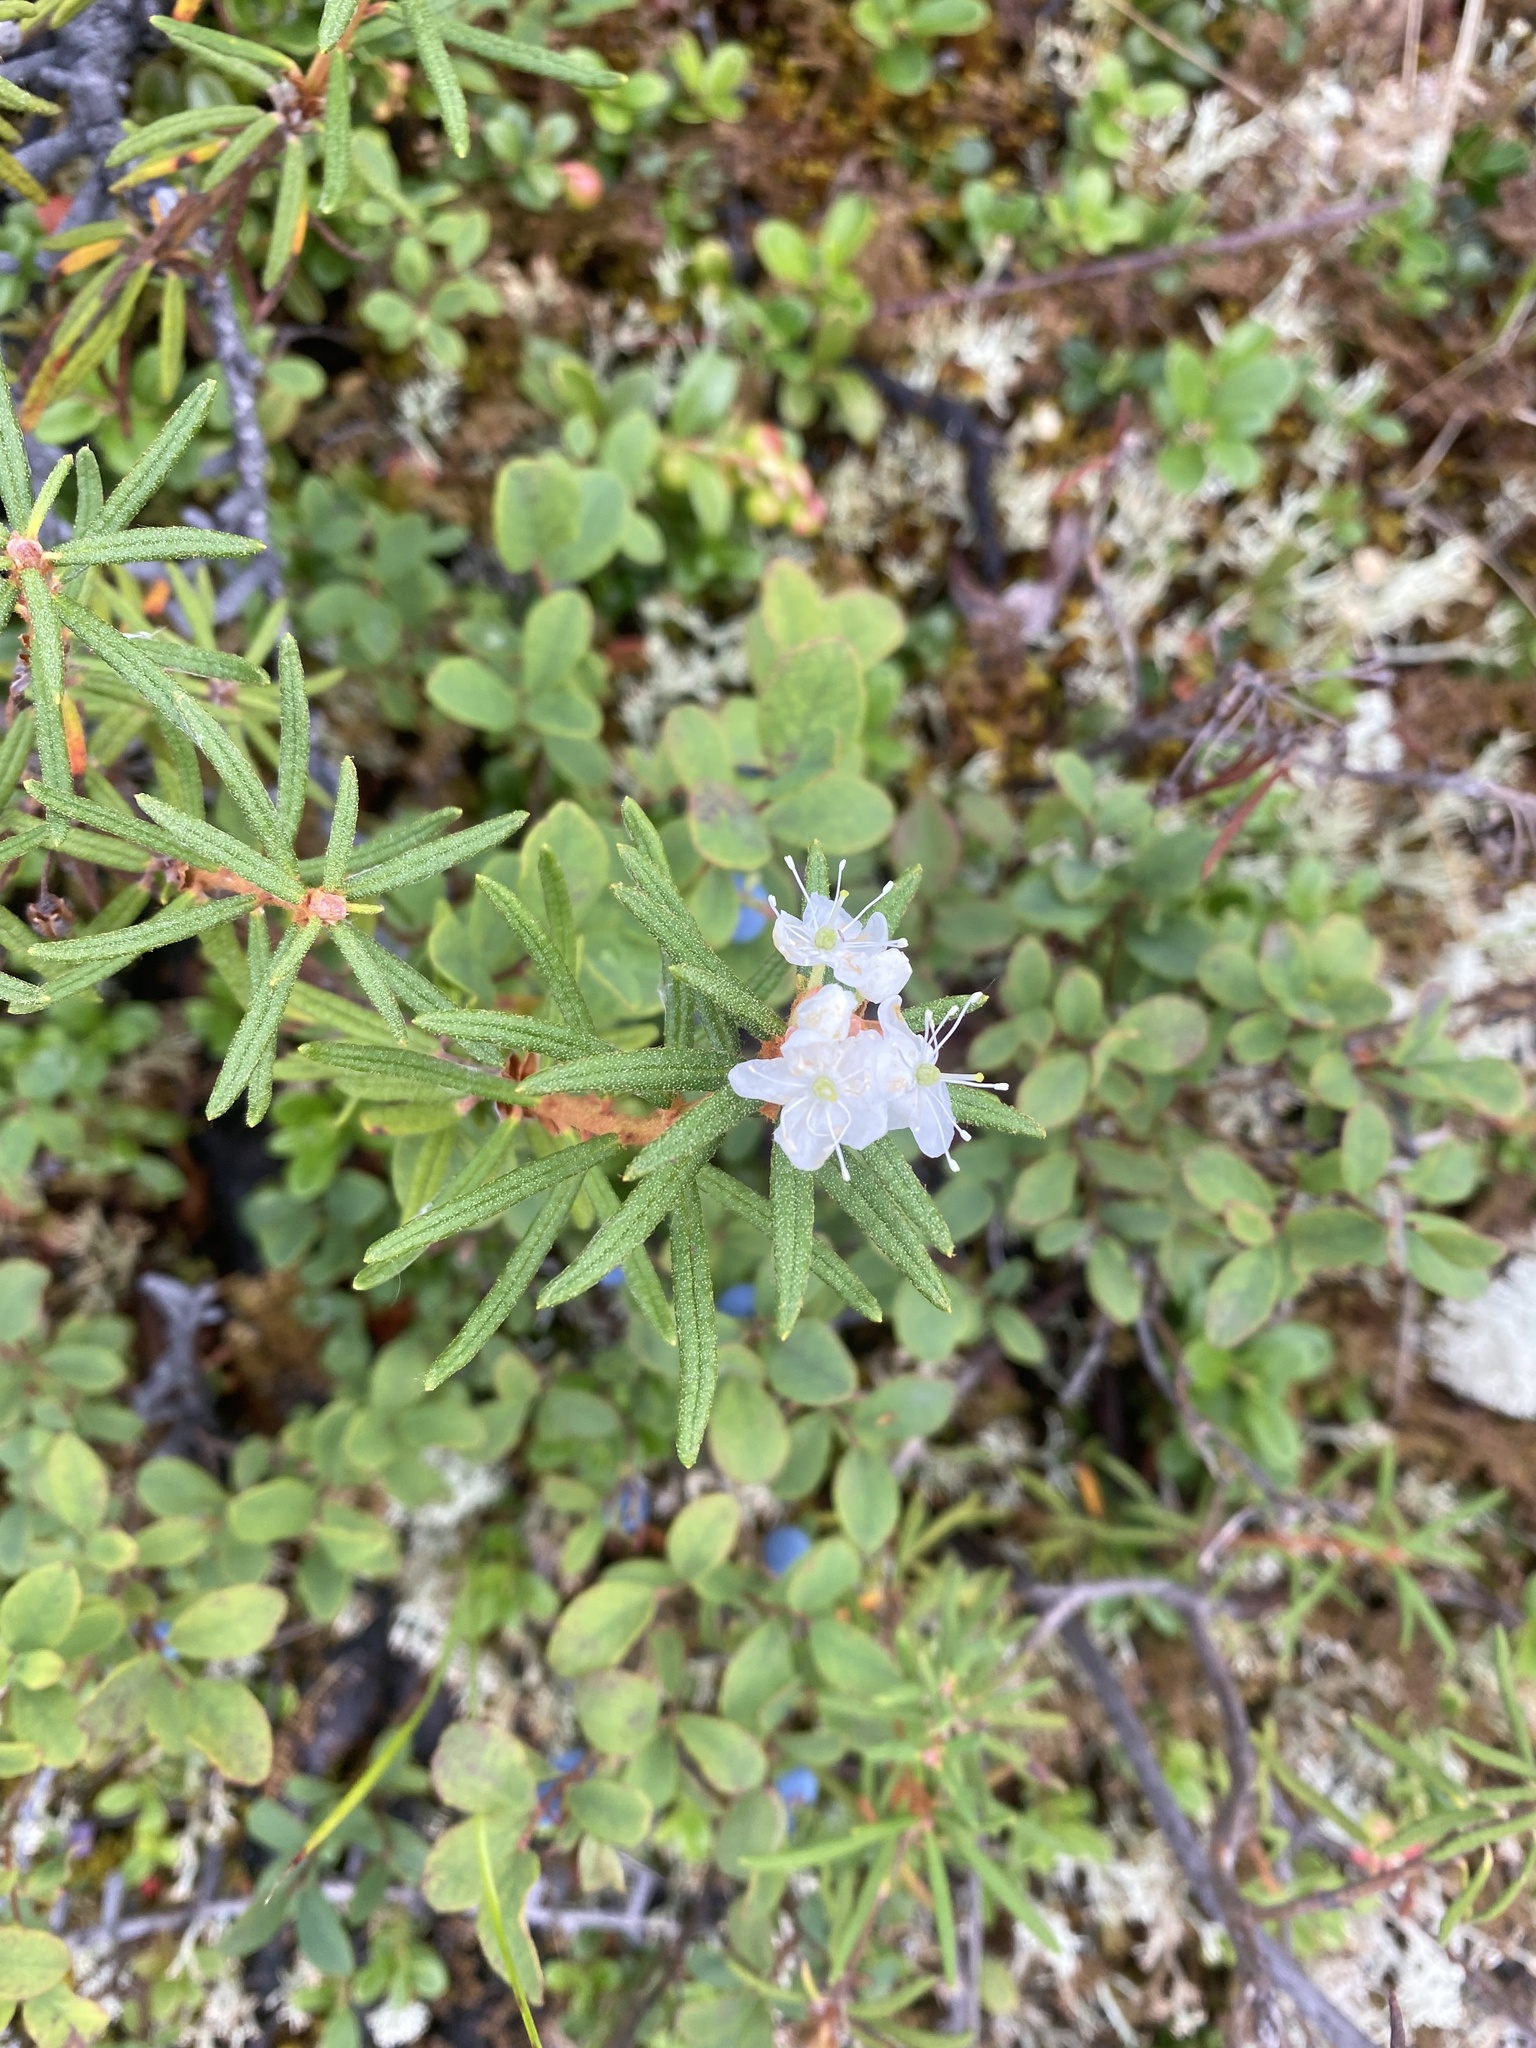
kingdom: Plantae
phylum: Tracheophyta
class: Magnoliopsida
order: Ericales
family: Ericaceae
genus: Rhododendron
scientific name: Rhododendron tomentosum
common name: Marsh labrador tea
